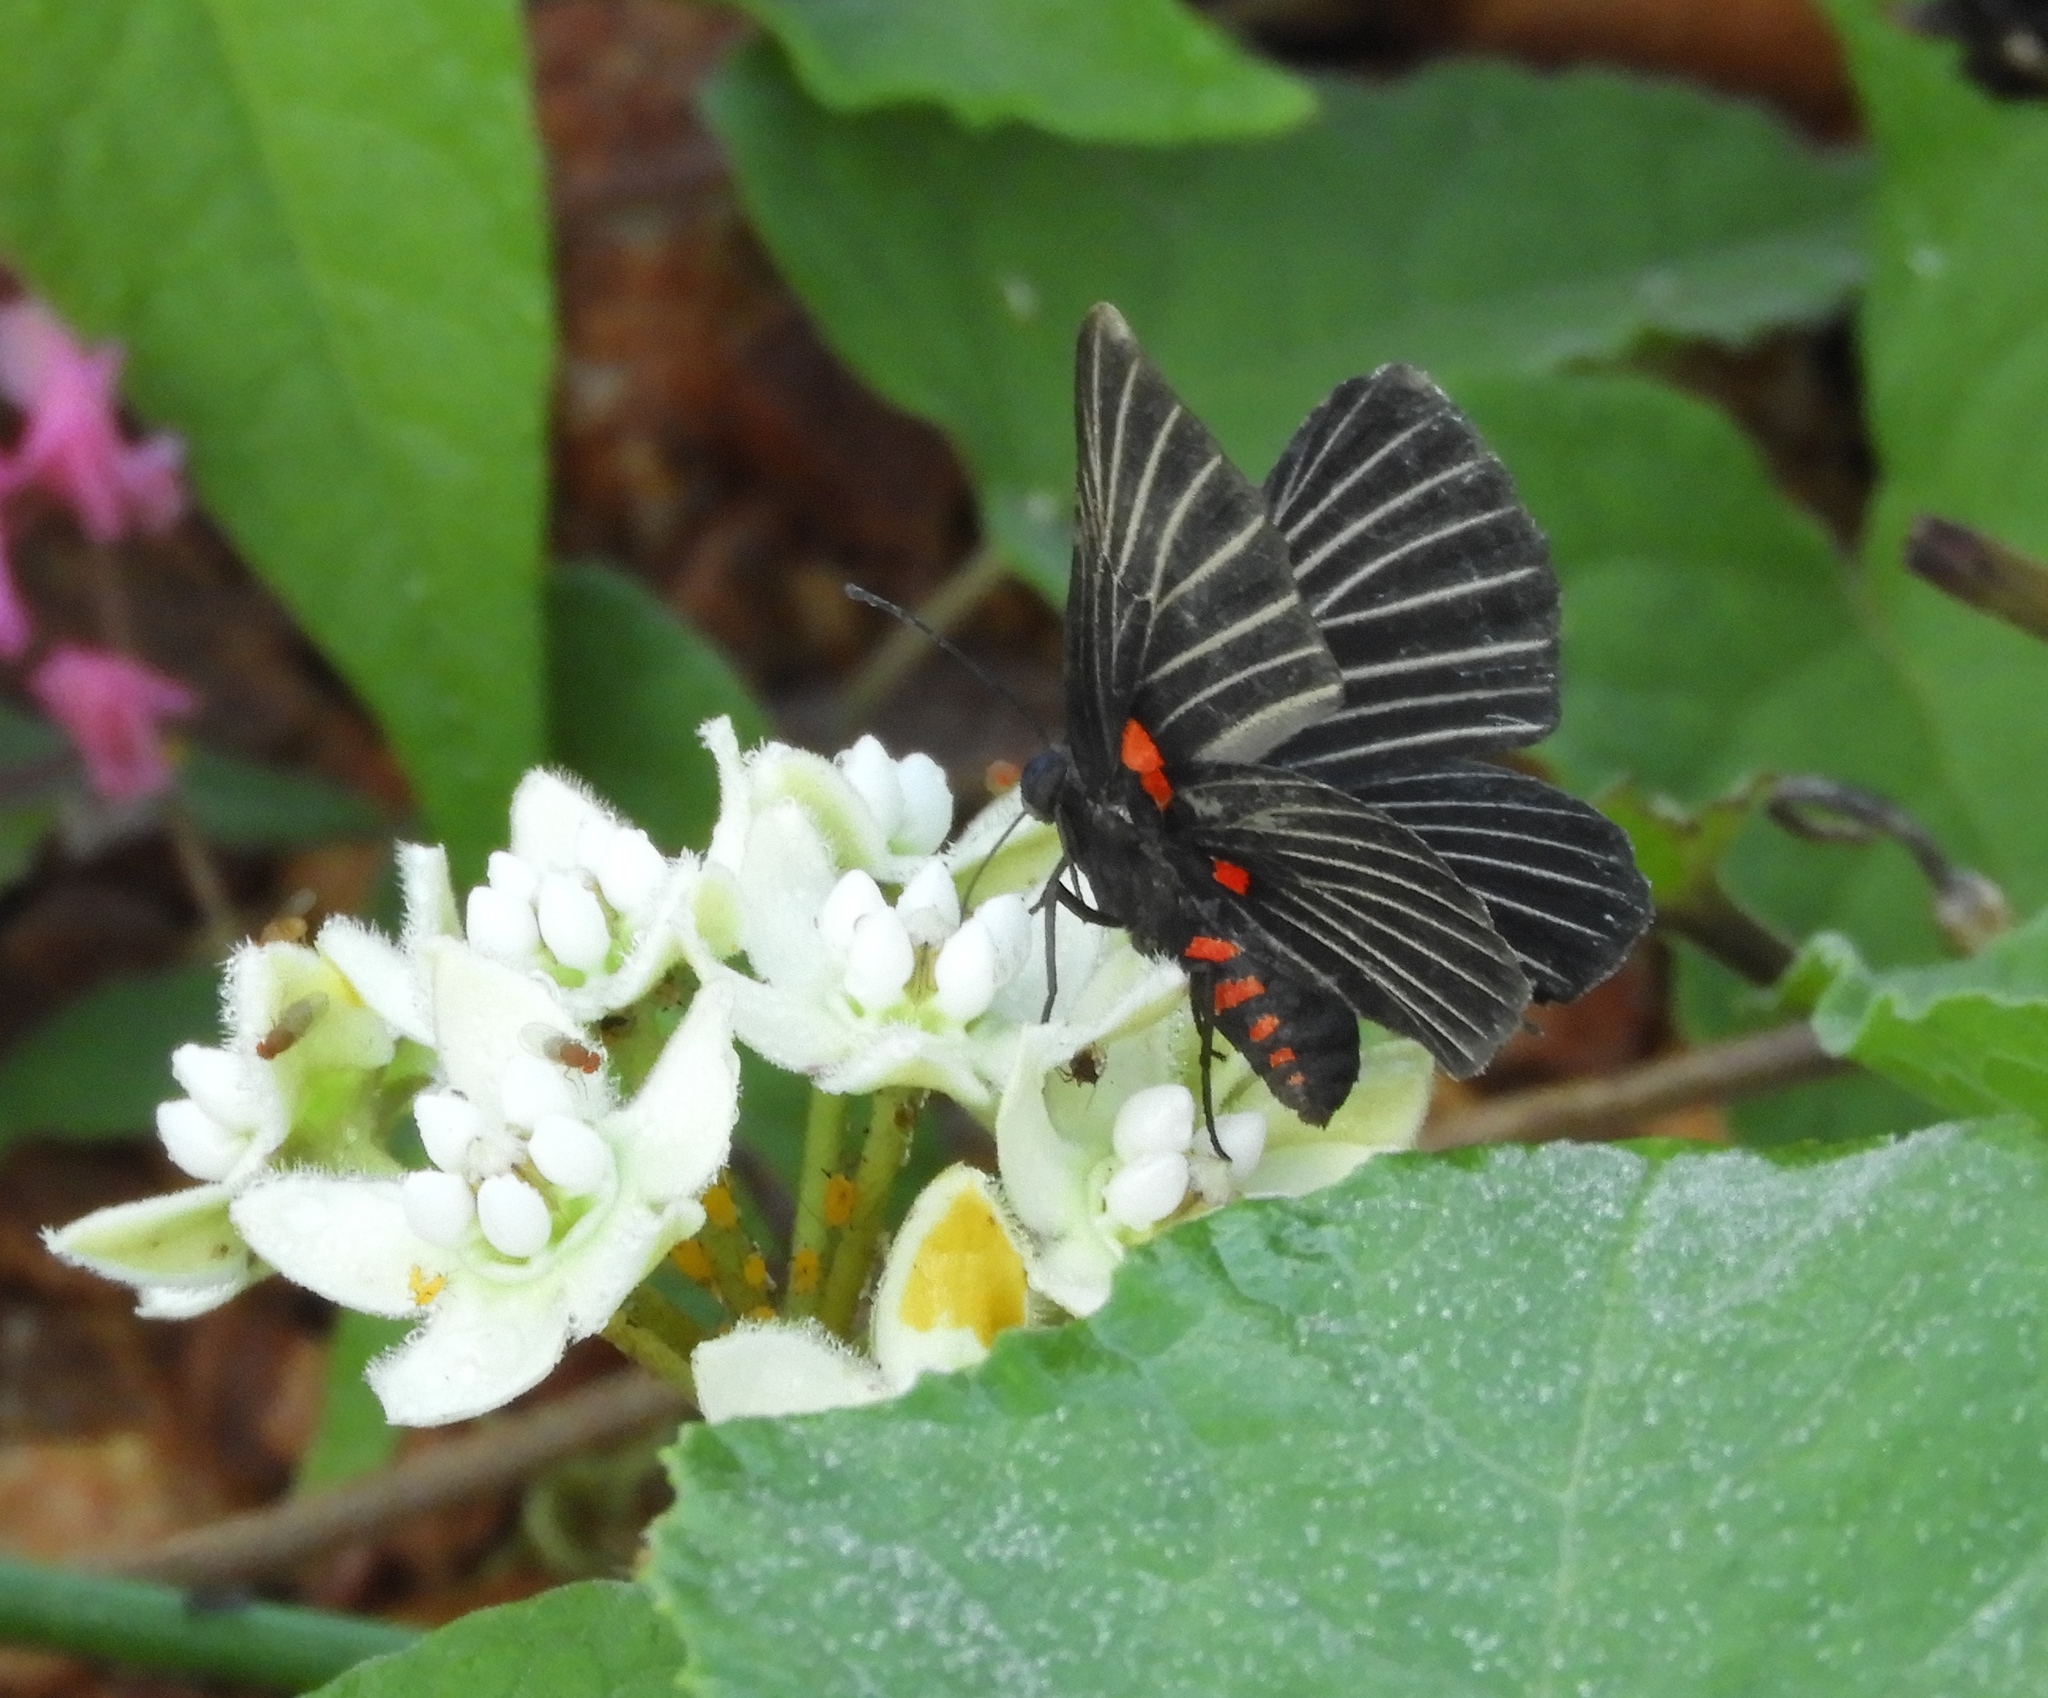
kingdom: Animalia
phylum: Arthropoda
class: Insecta
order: Lepidoptera
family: Lycaenidae
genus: Melanis
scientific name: Melanis
